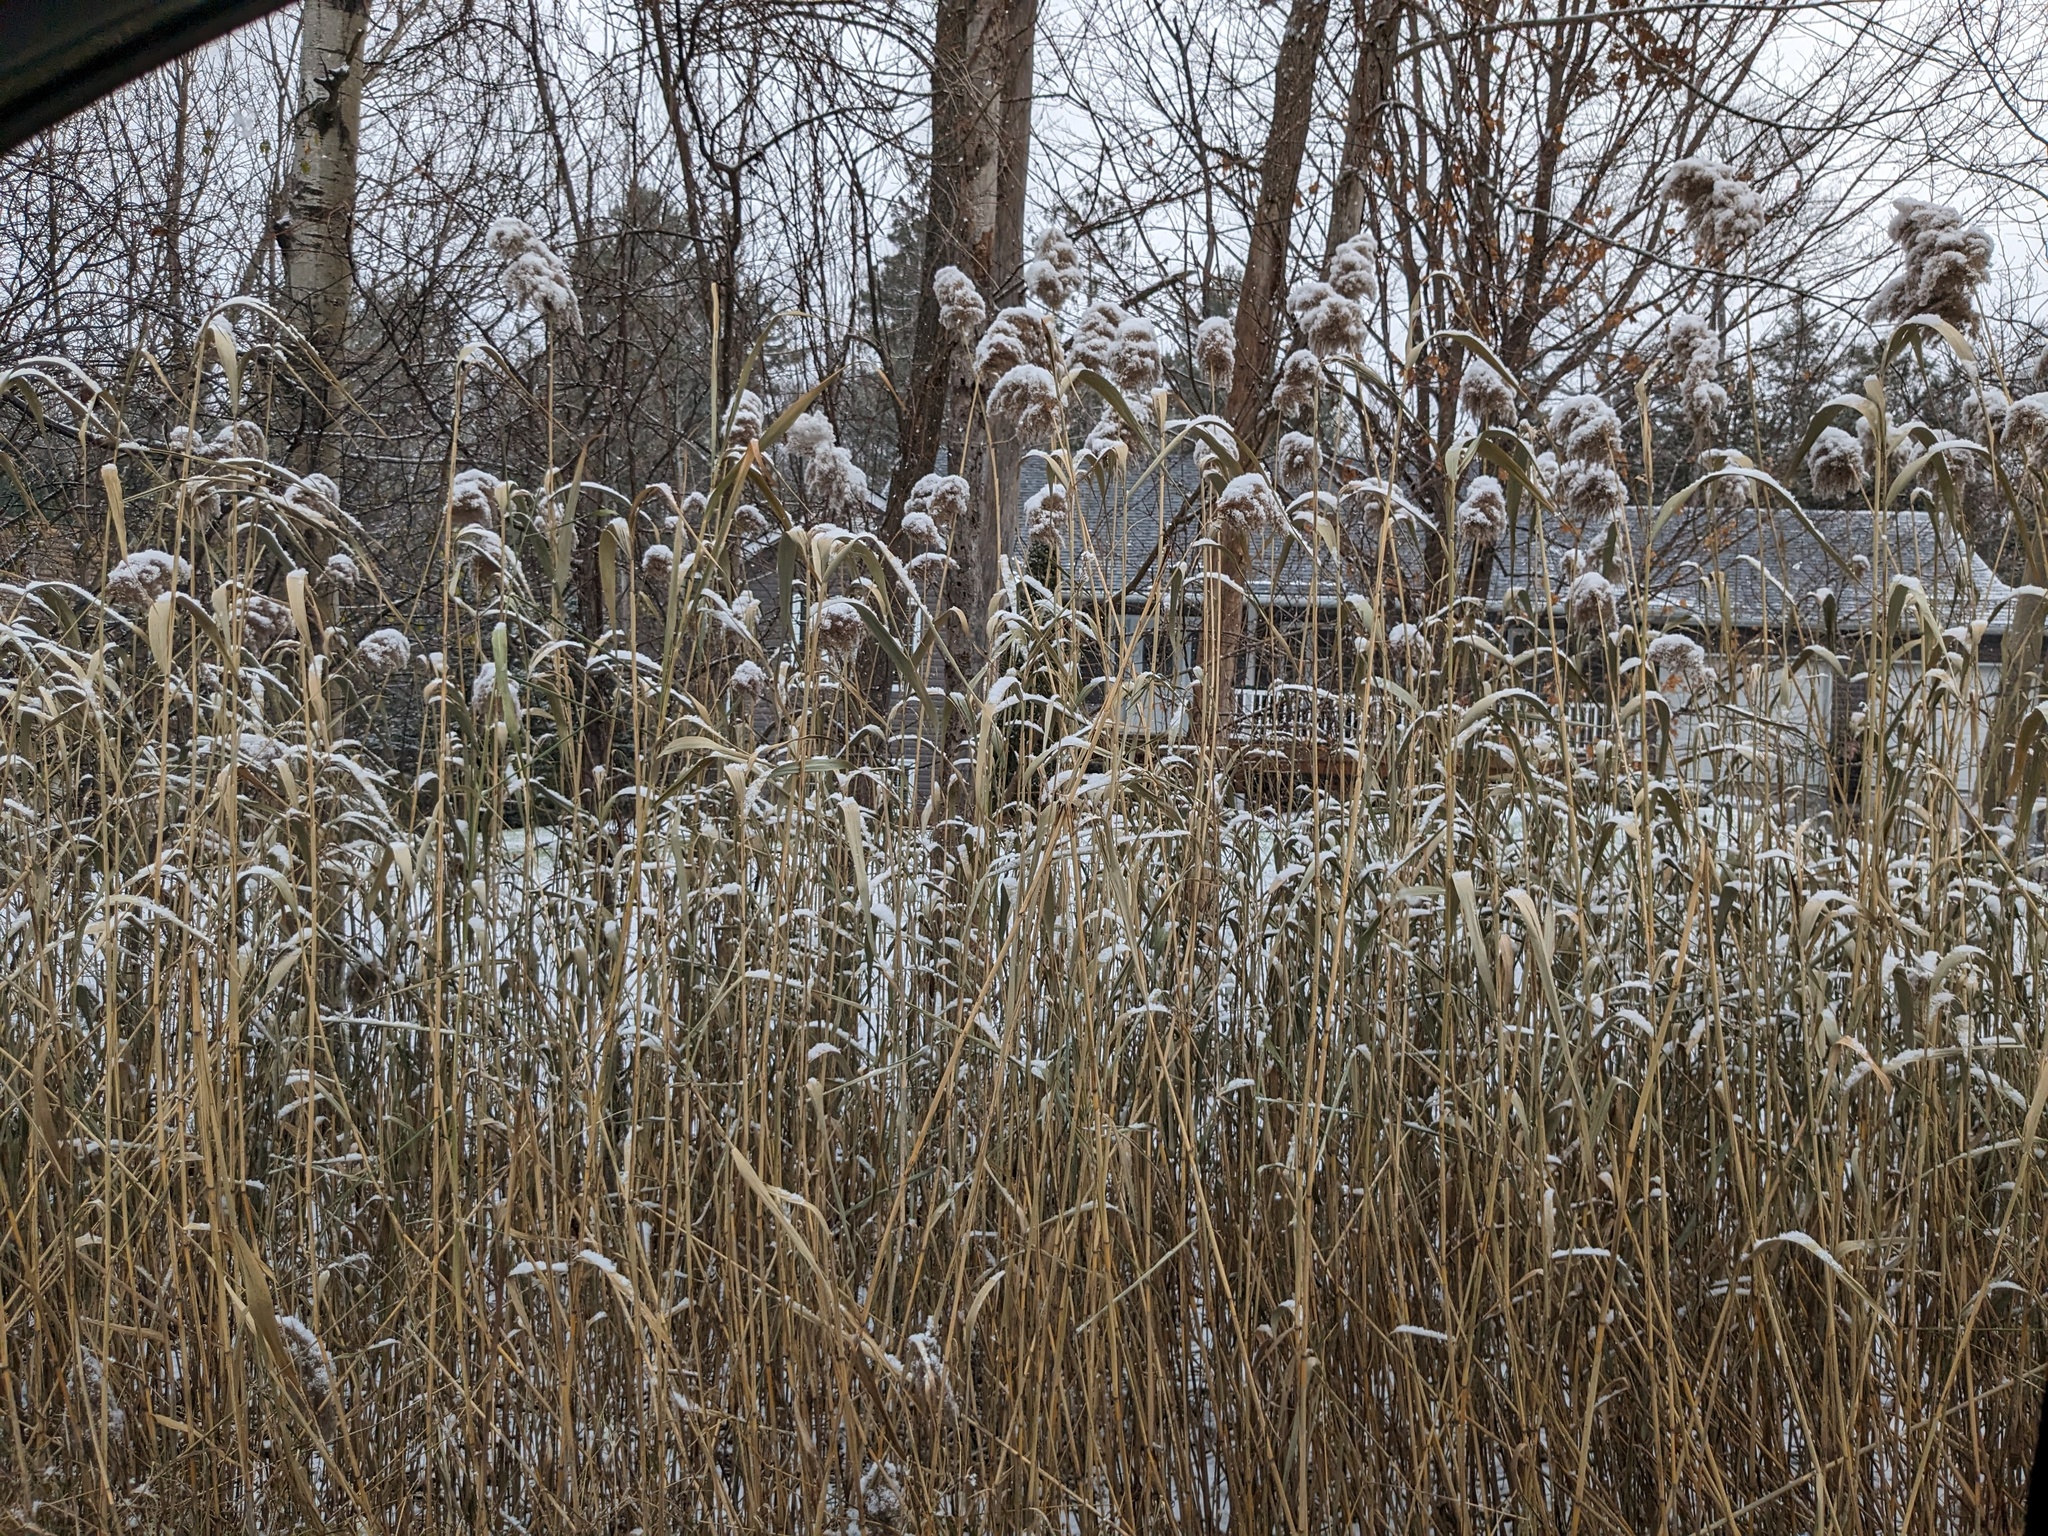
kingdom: Plantae
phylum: Tracheophyta
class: Liliopsida
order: Poales
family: Poaceae
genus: Phragmites
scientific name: Phragmites australis
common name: Common reed
